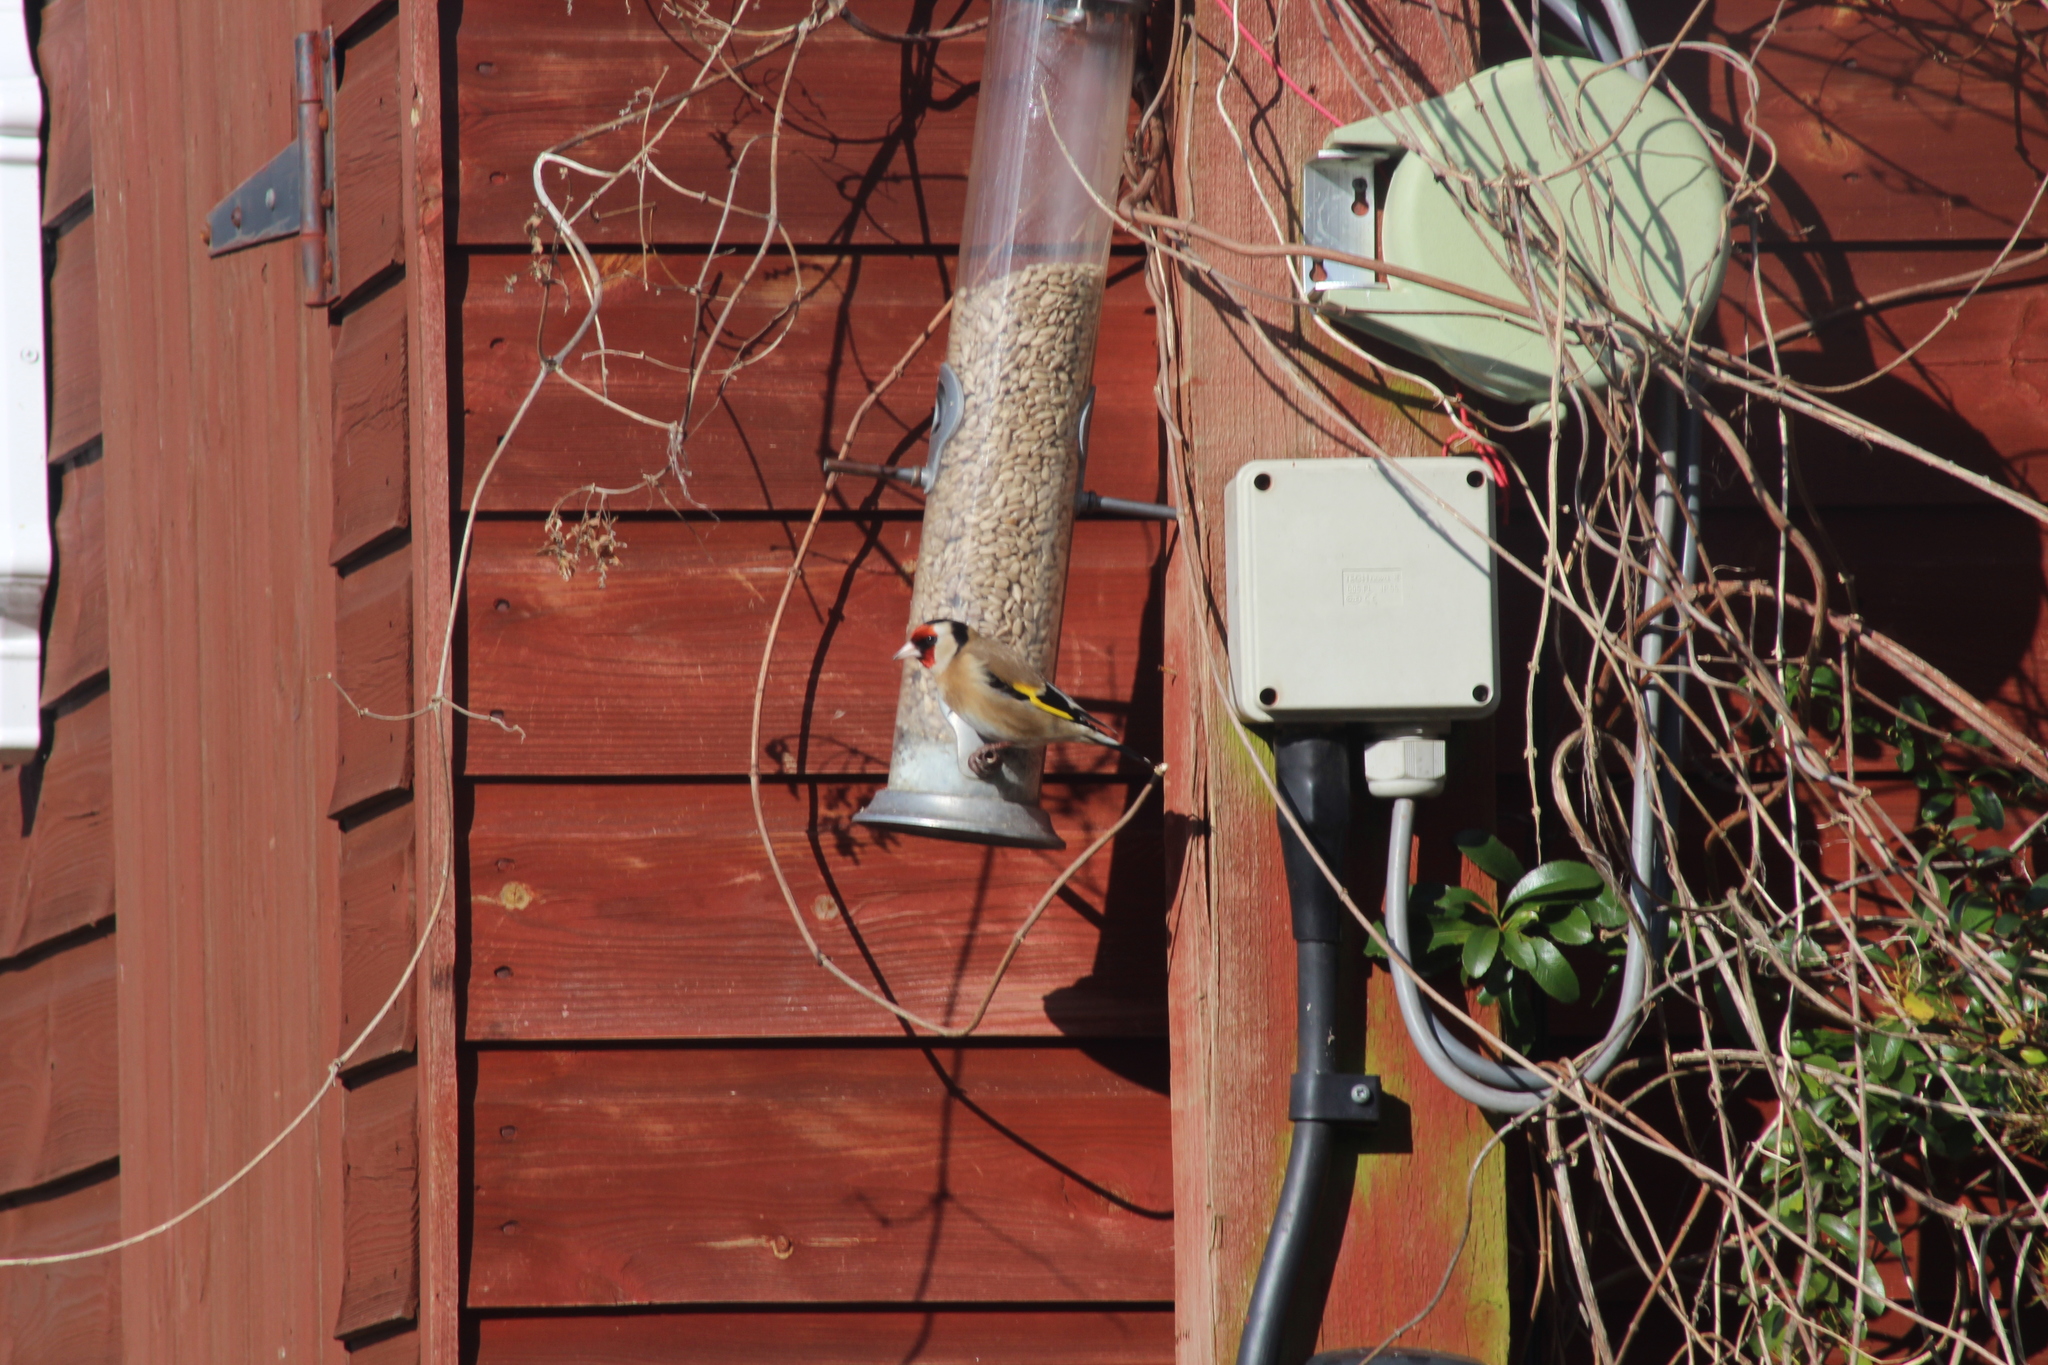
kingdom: Animalia
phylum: Chordata
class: Aves
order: Passeriformes
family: Fringillidae
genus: Carduelis
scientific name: Carduelis carduelis
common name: European goldfinch
